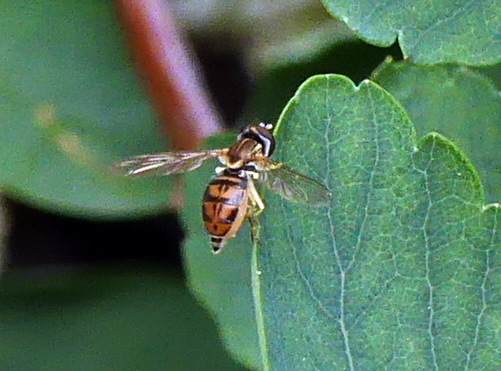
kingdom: Animalia
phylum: Arthropoda
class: Insecta
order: Diptera
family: Syrphidae
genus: Toxomerus
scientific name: Toxomerus marginatus
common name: Syrphid fly
